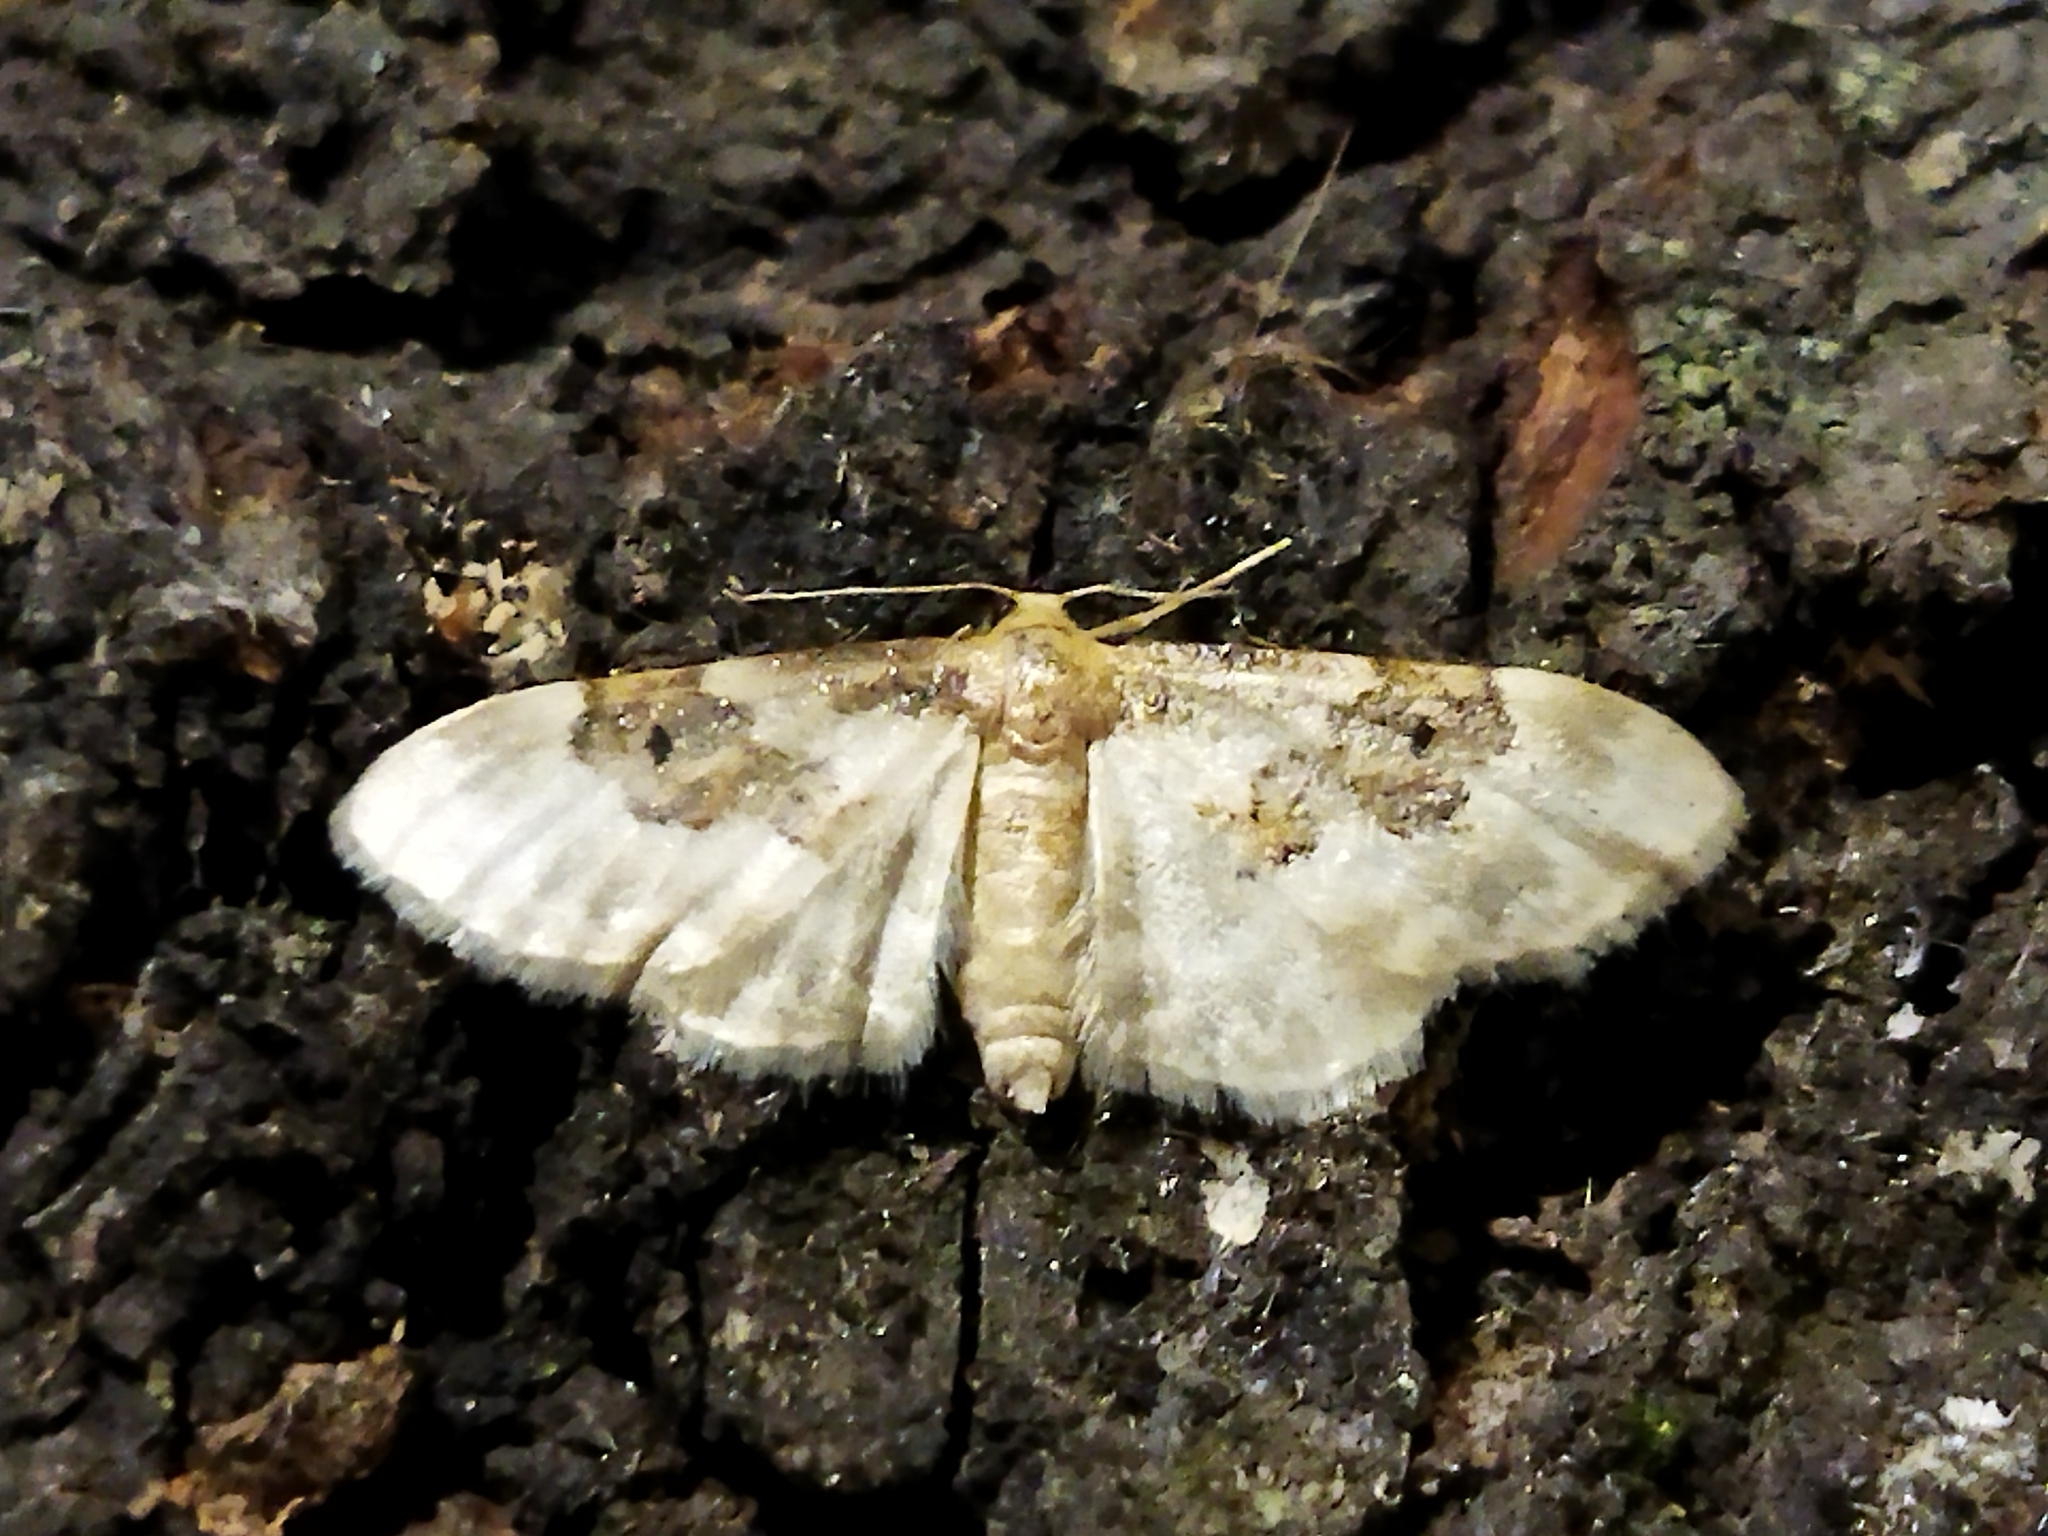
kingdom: Animalia
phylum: Arthropoda
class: Insecta
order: Lepidoptera
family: Geometridae
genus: Idaea
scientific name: Idaea rusticata
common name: Least carpet
